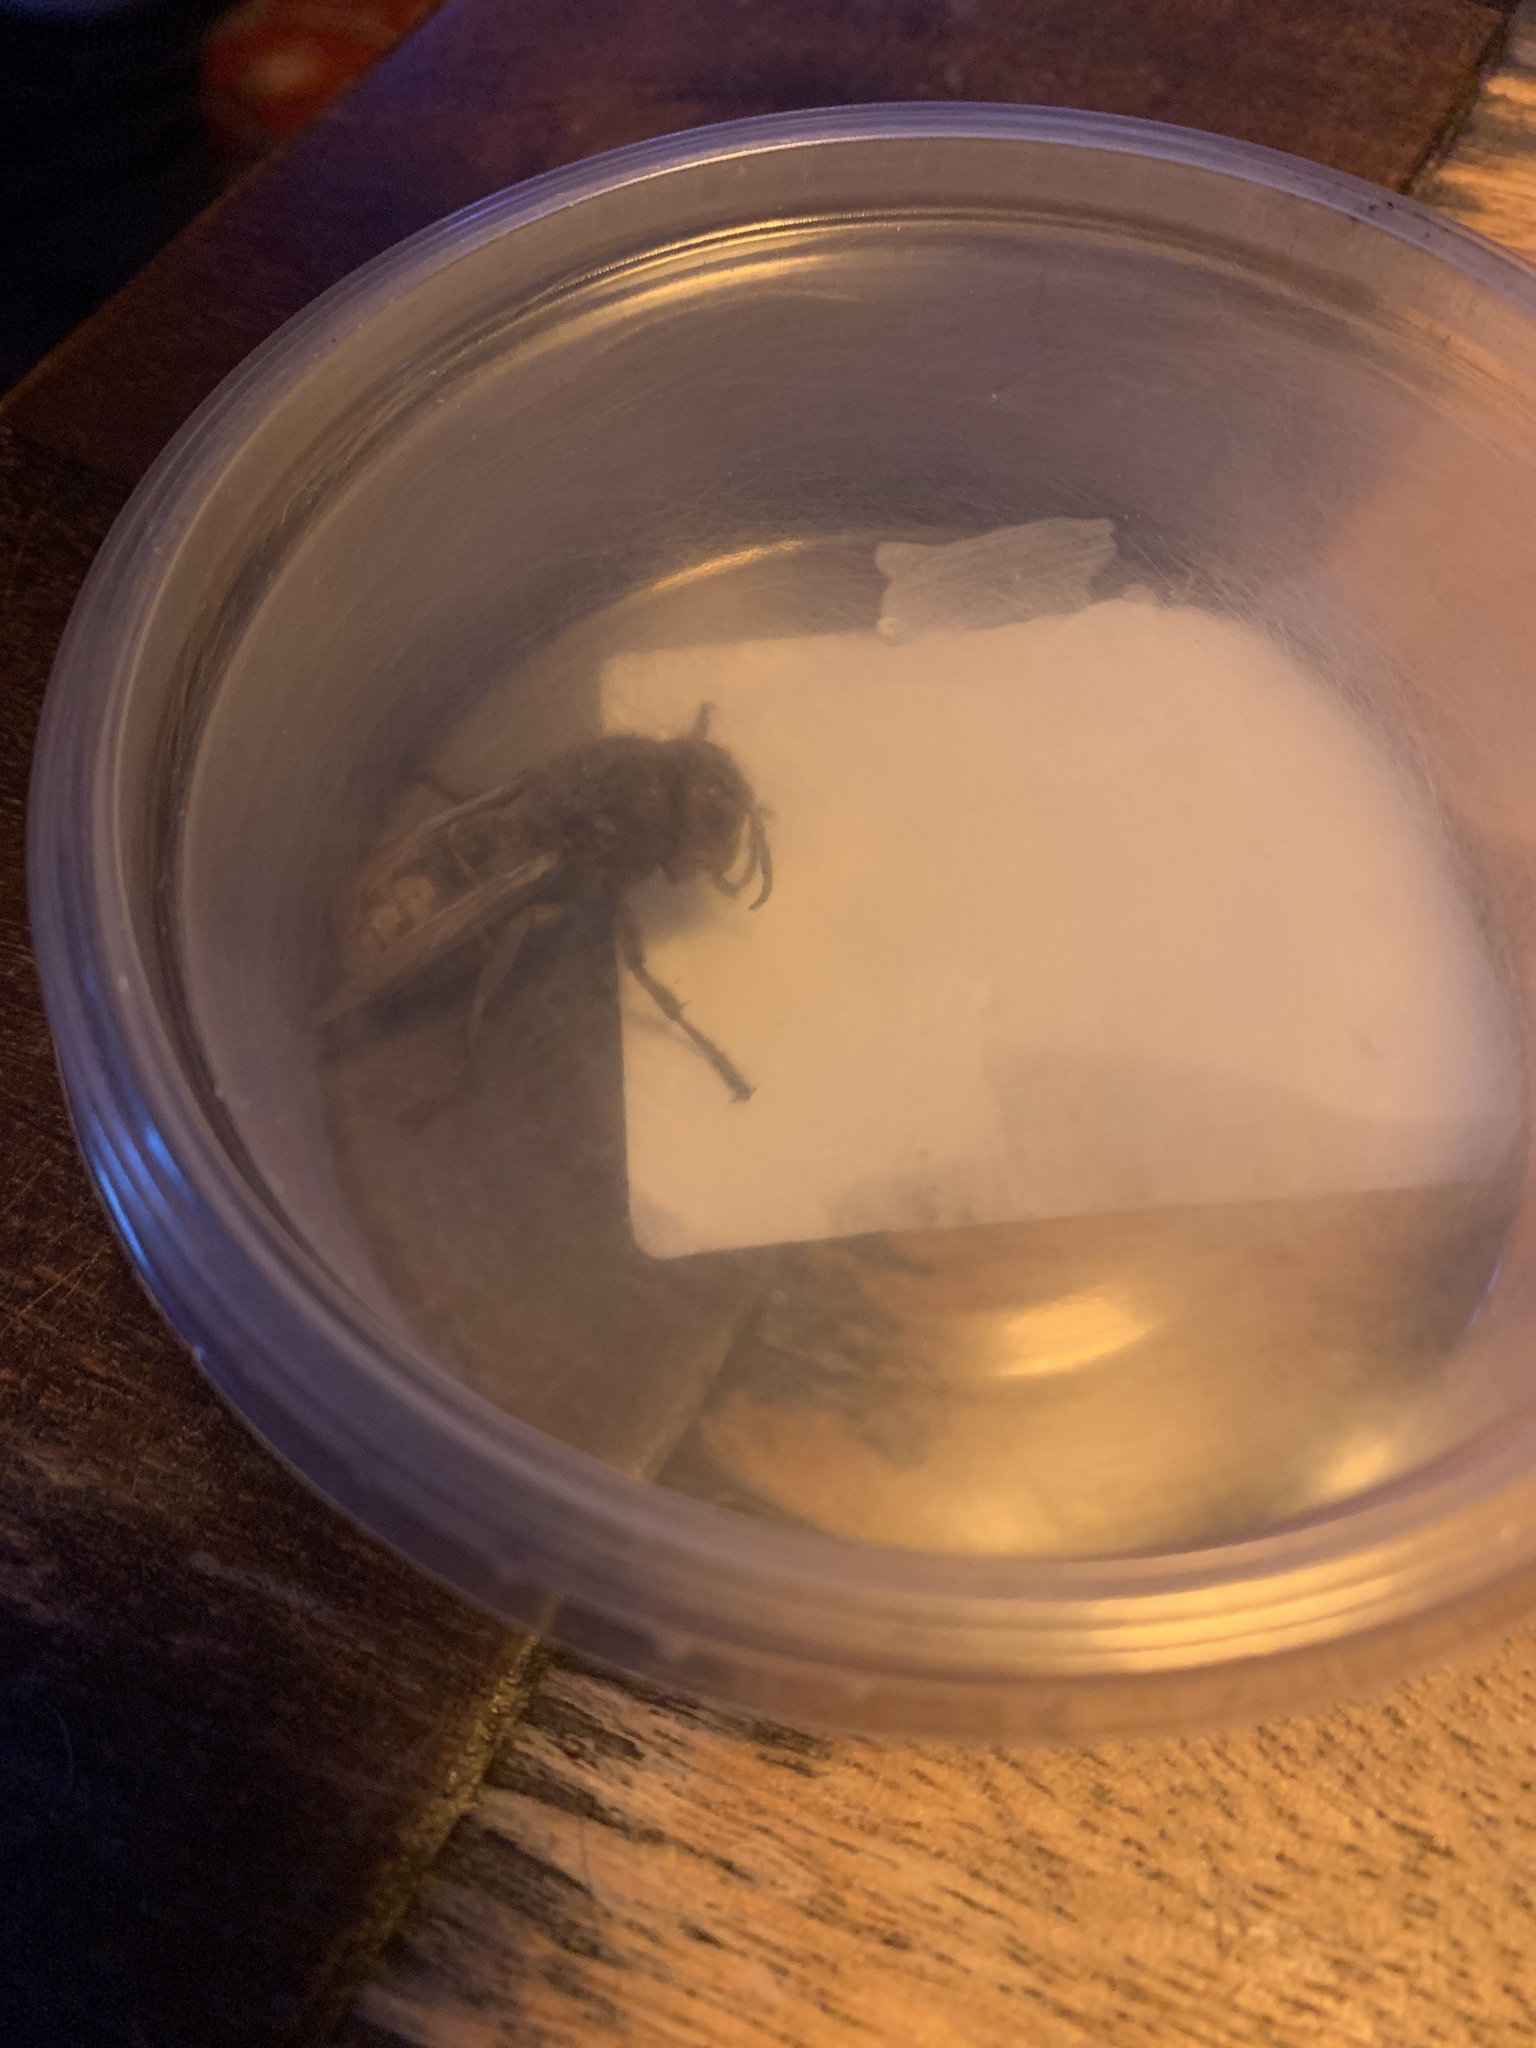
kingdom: Animalia
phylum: Arthropoda
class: Insecta
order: Hymenoptera
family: Vespidae
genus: Vespa
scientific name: Vespa crabro
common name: Hornet
